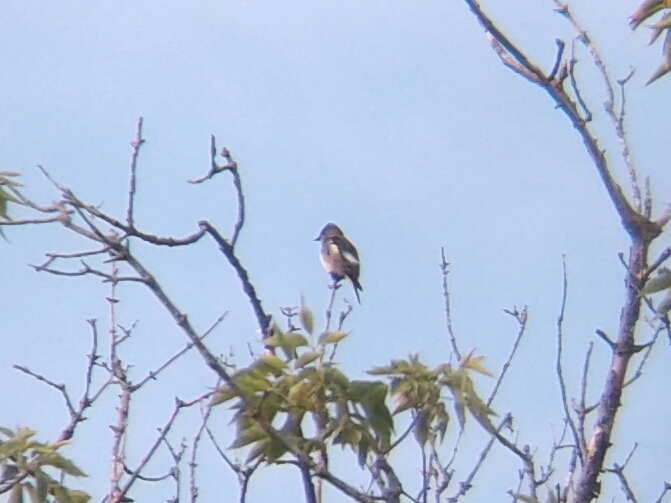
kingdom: Animalia
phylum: Chordata
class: Aves
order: Passeriformes
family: Tyrannidae
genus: Contopus
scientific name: Contopus cooperi
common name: Olive-sided flycatcher
